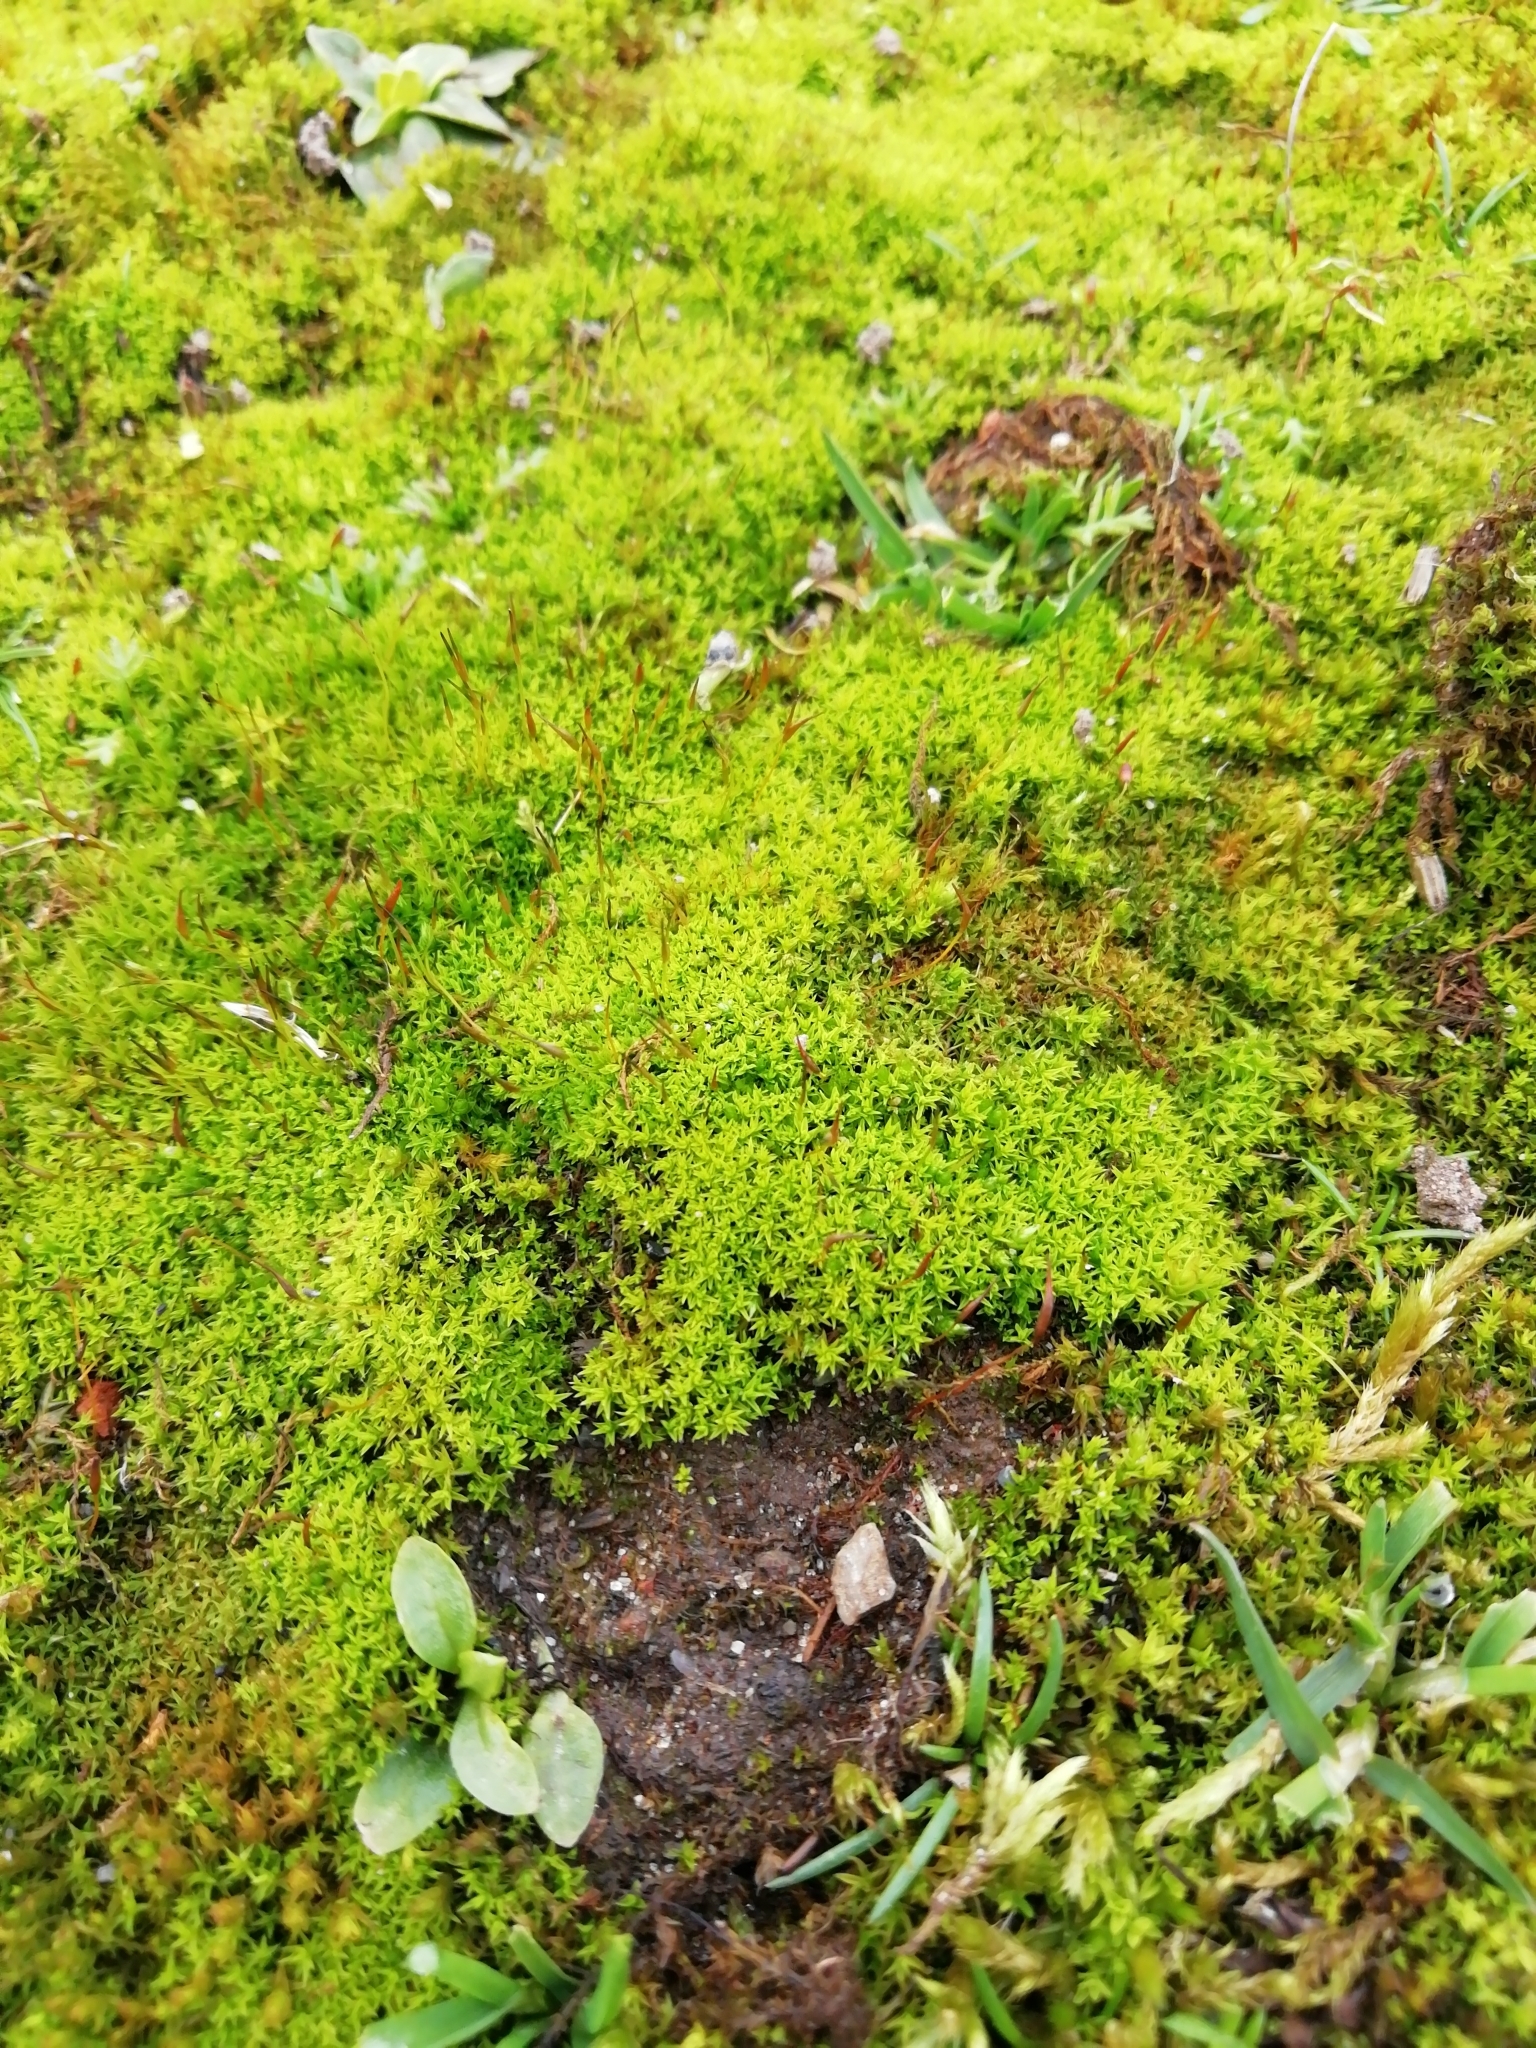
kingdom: Plantae
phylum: Bryophyta
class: Bryopsida
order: Pottiales
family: Pottiaceae
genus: Barbula
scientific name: Barbula unguiculata
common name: Prickly beard moss
